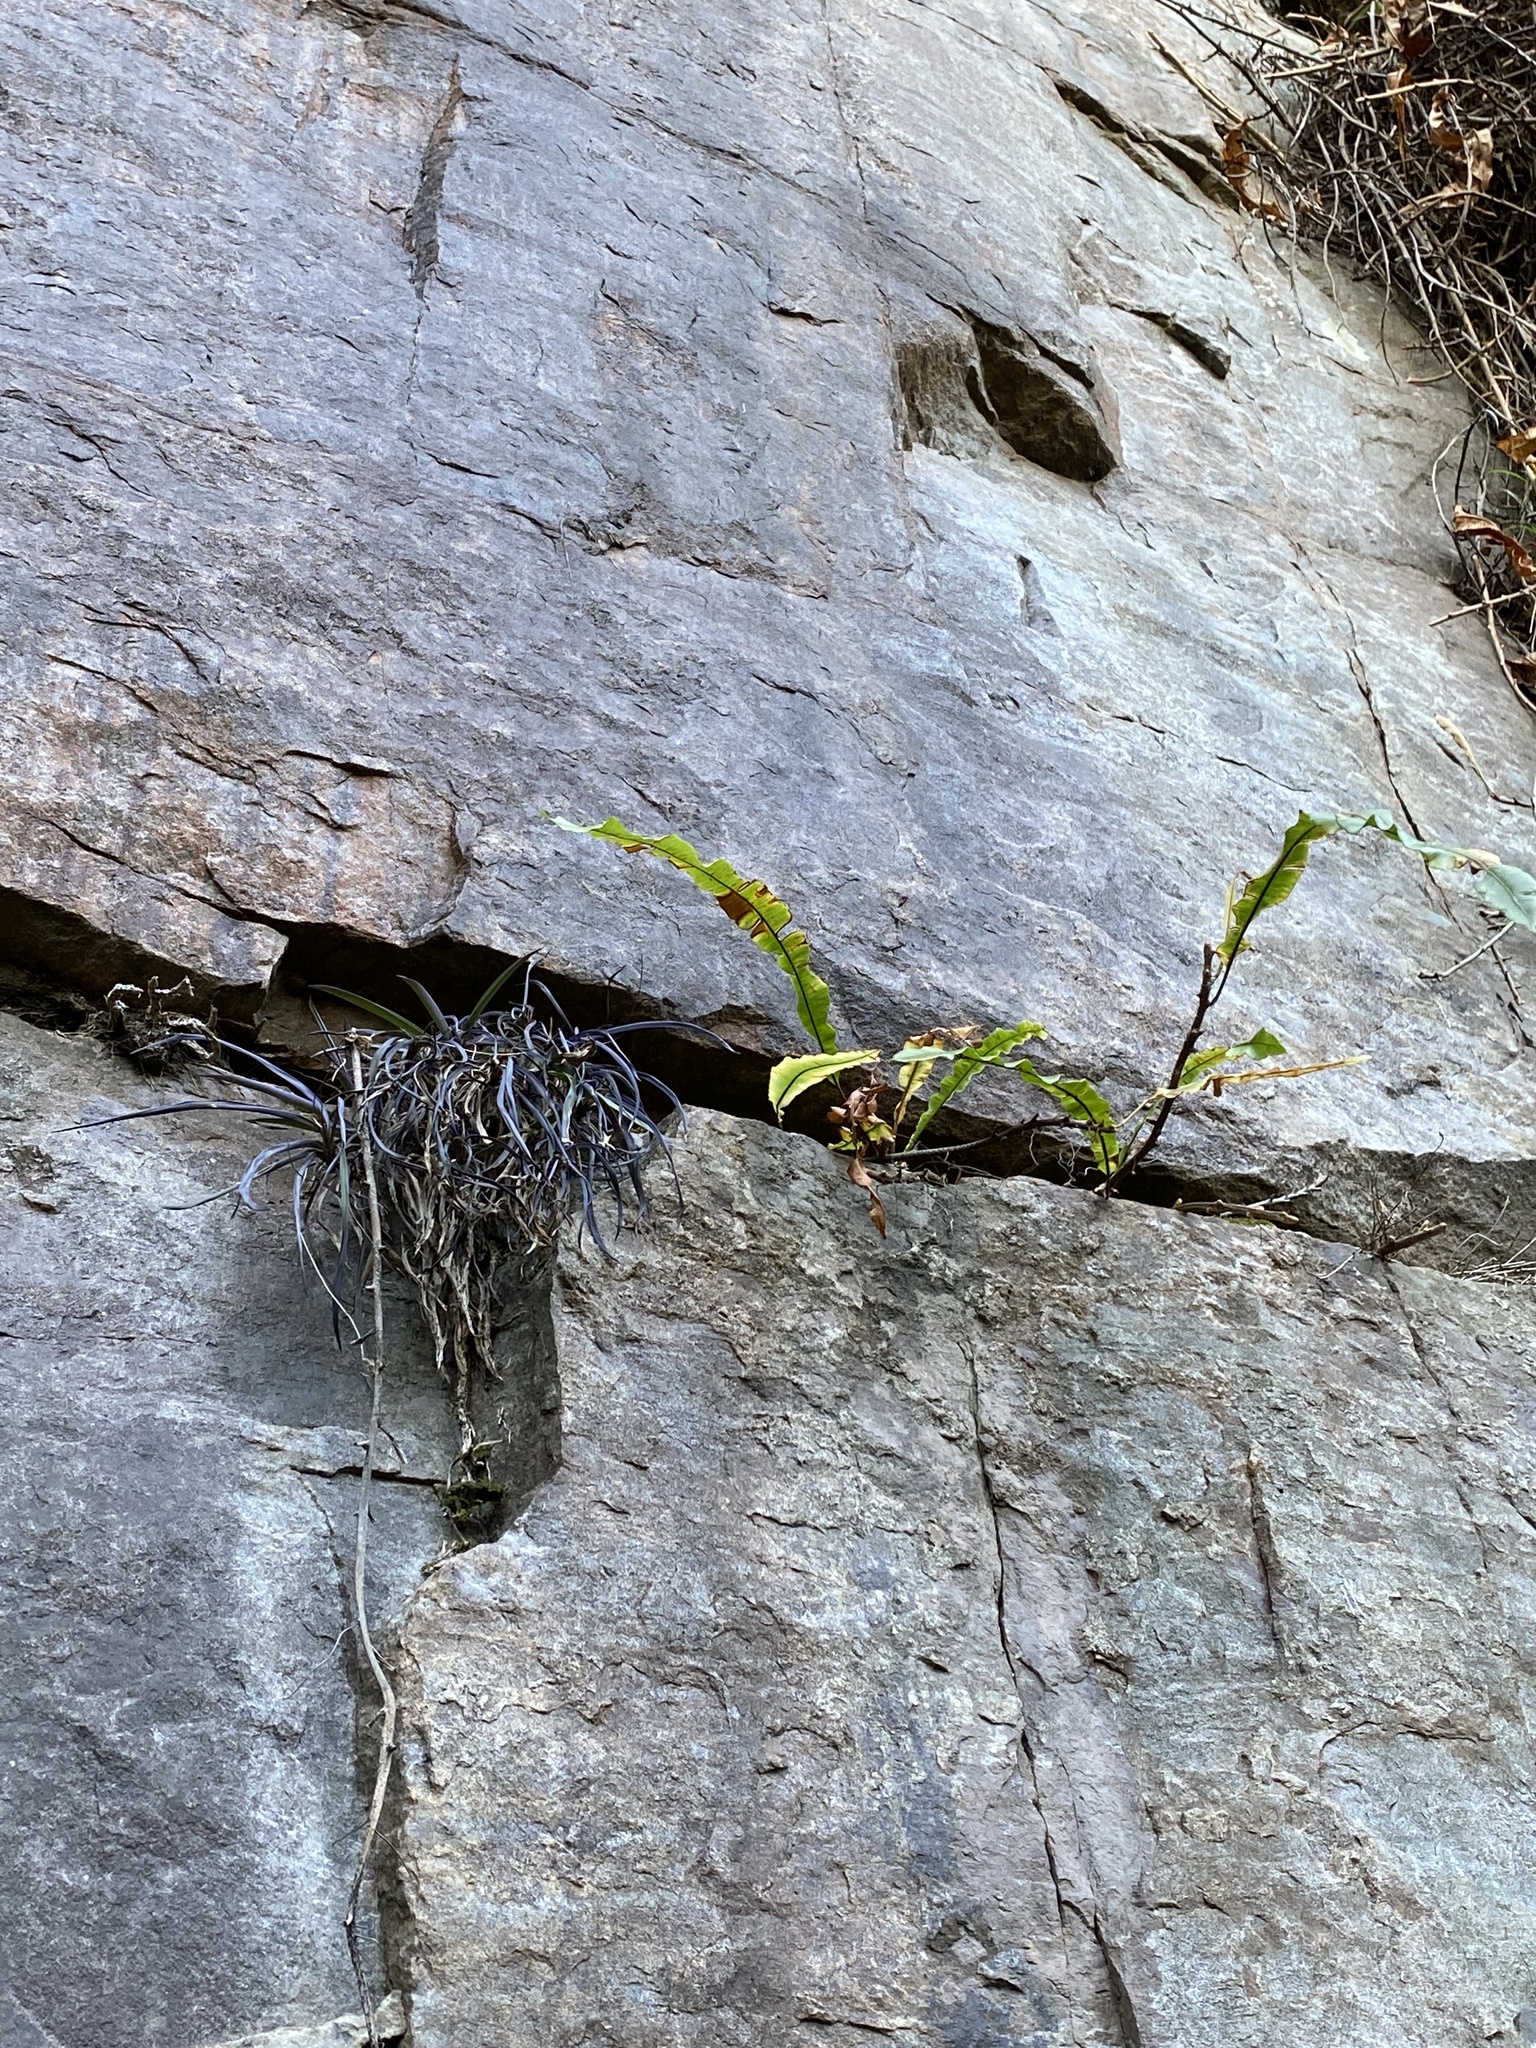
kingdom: Plantae
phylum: Tracheophyta
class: Polypodiopsida
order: Polypodiales
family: Oleandraceae
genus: Oleandra
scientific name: Oleandra distenta
